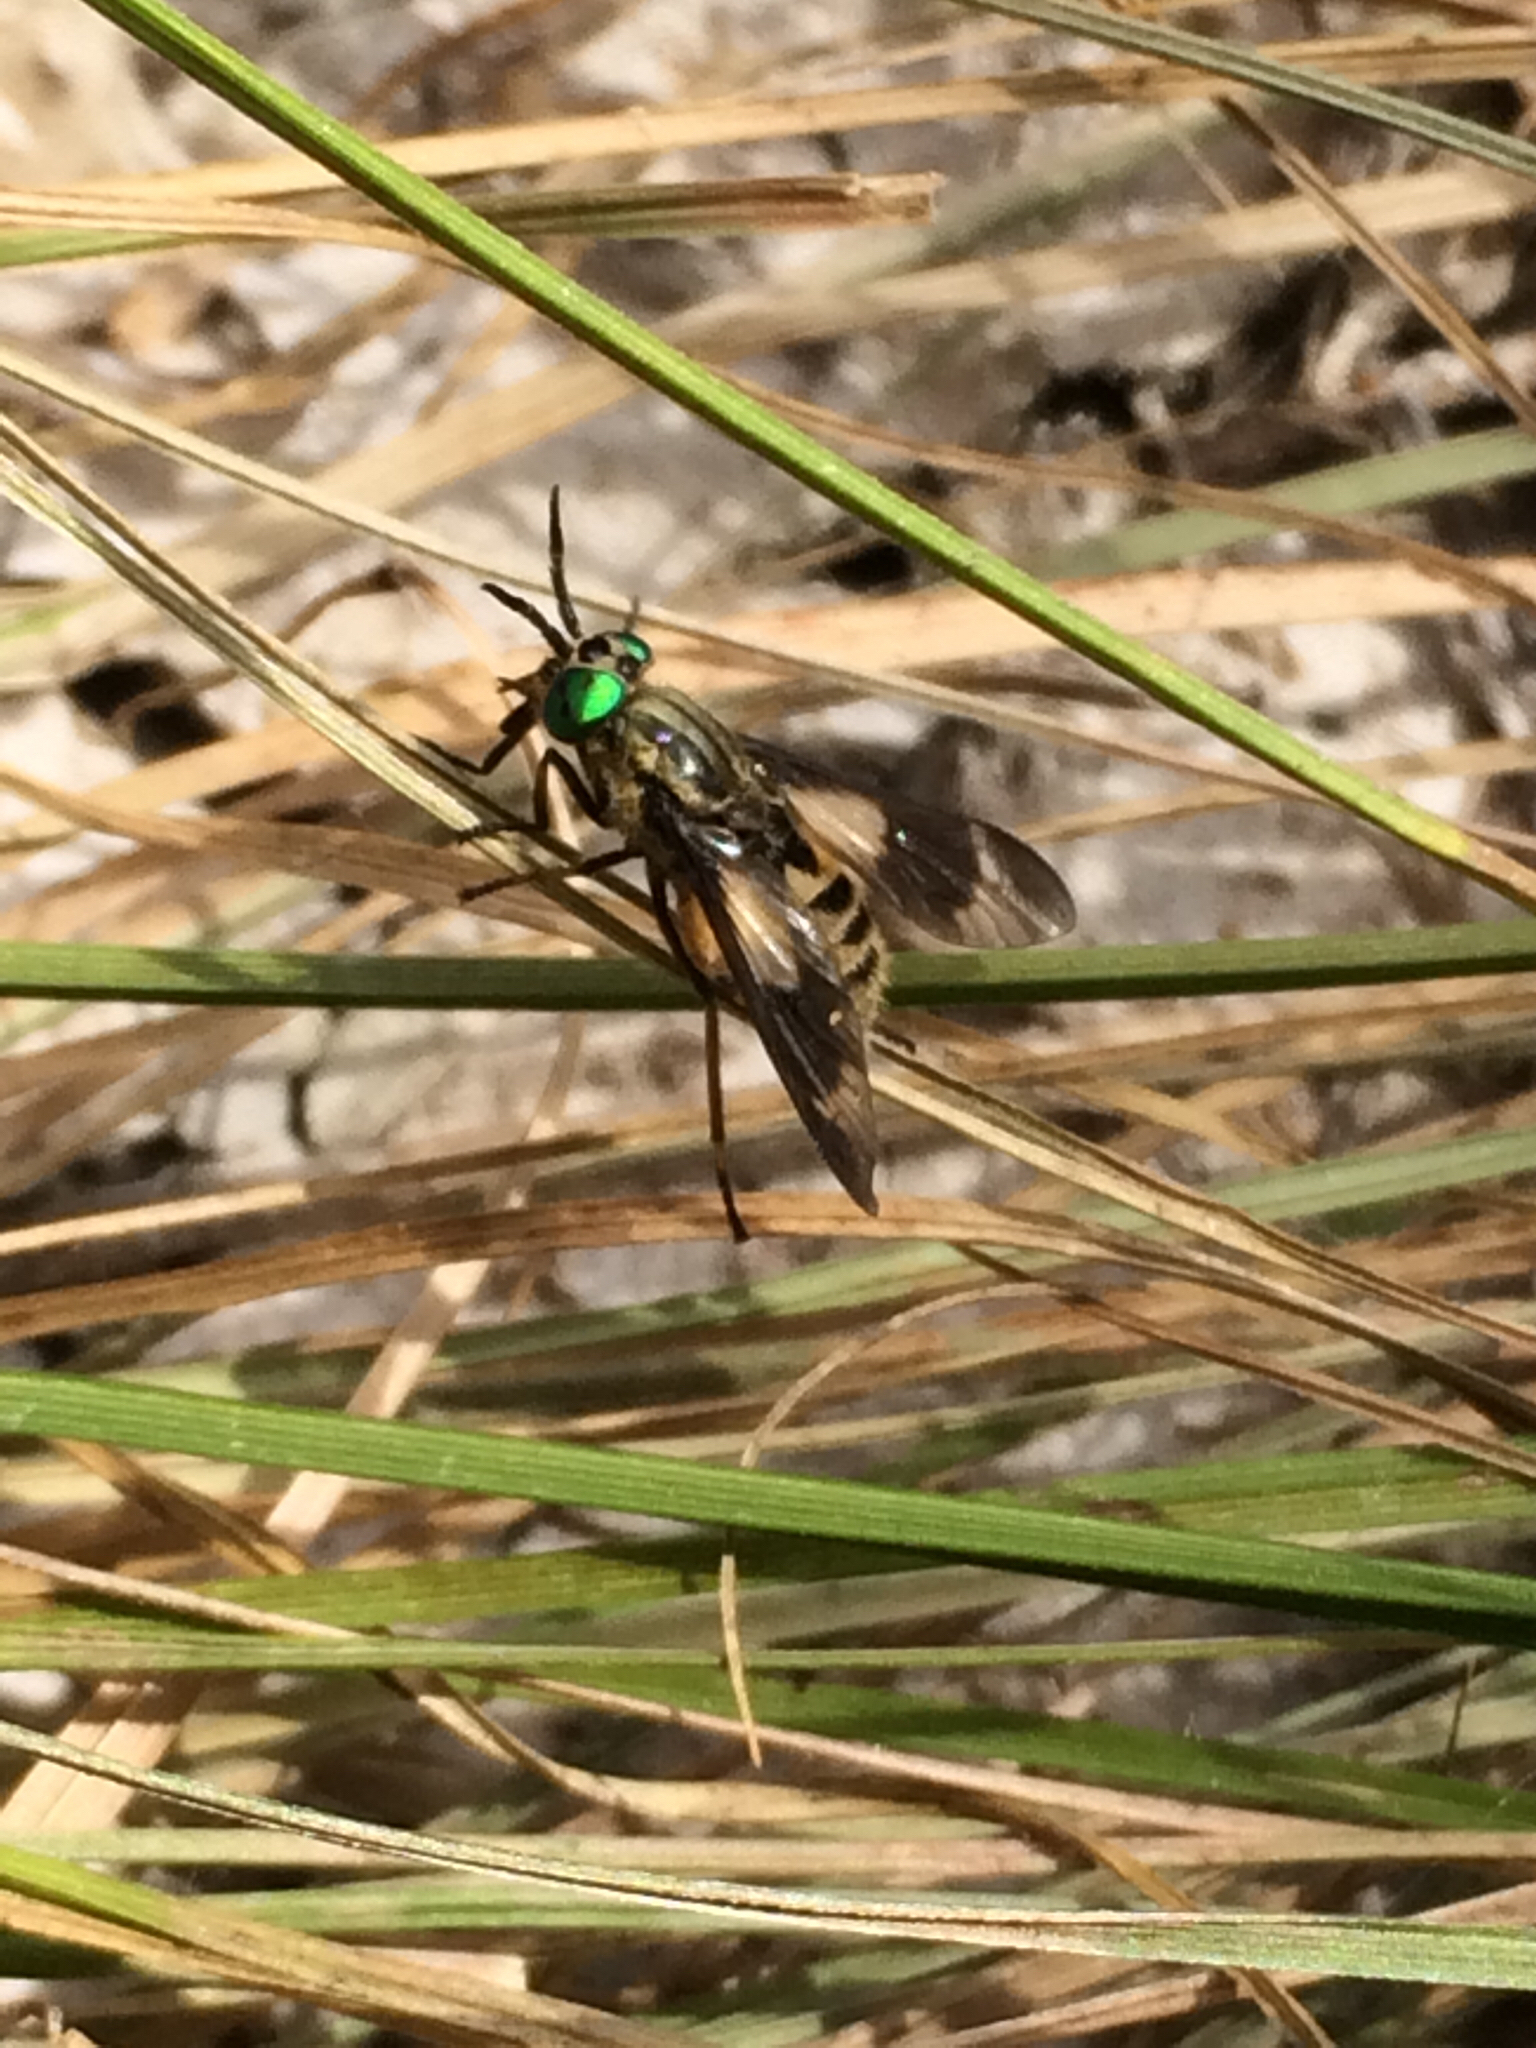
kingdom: Animalia
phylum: Arthropoda
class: Insecta
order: Diptera
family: Tabanidae
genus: Chrysops
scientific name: Chrysops relictus
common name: Twin-lobed deerfly
